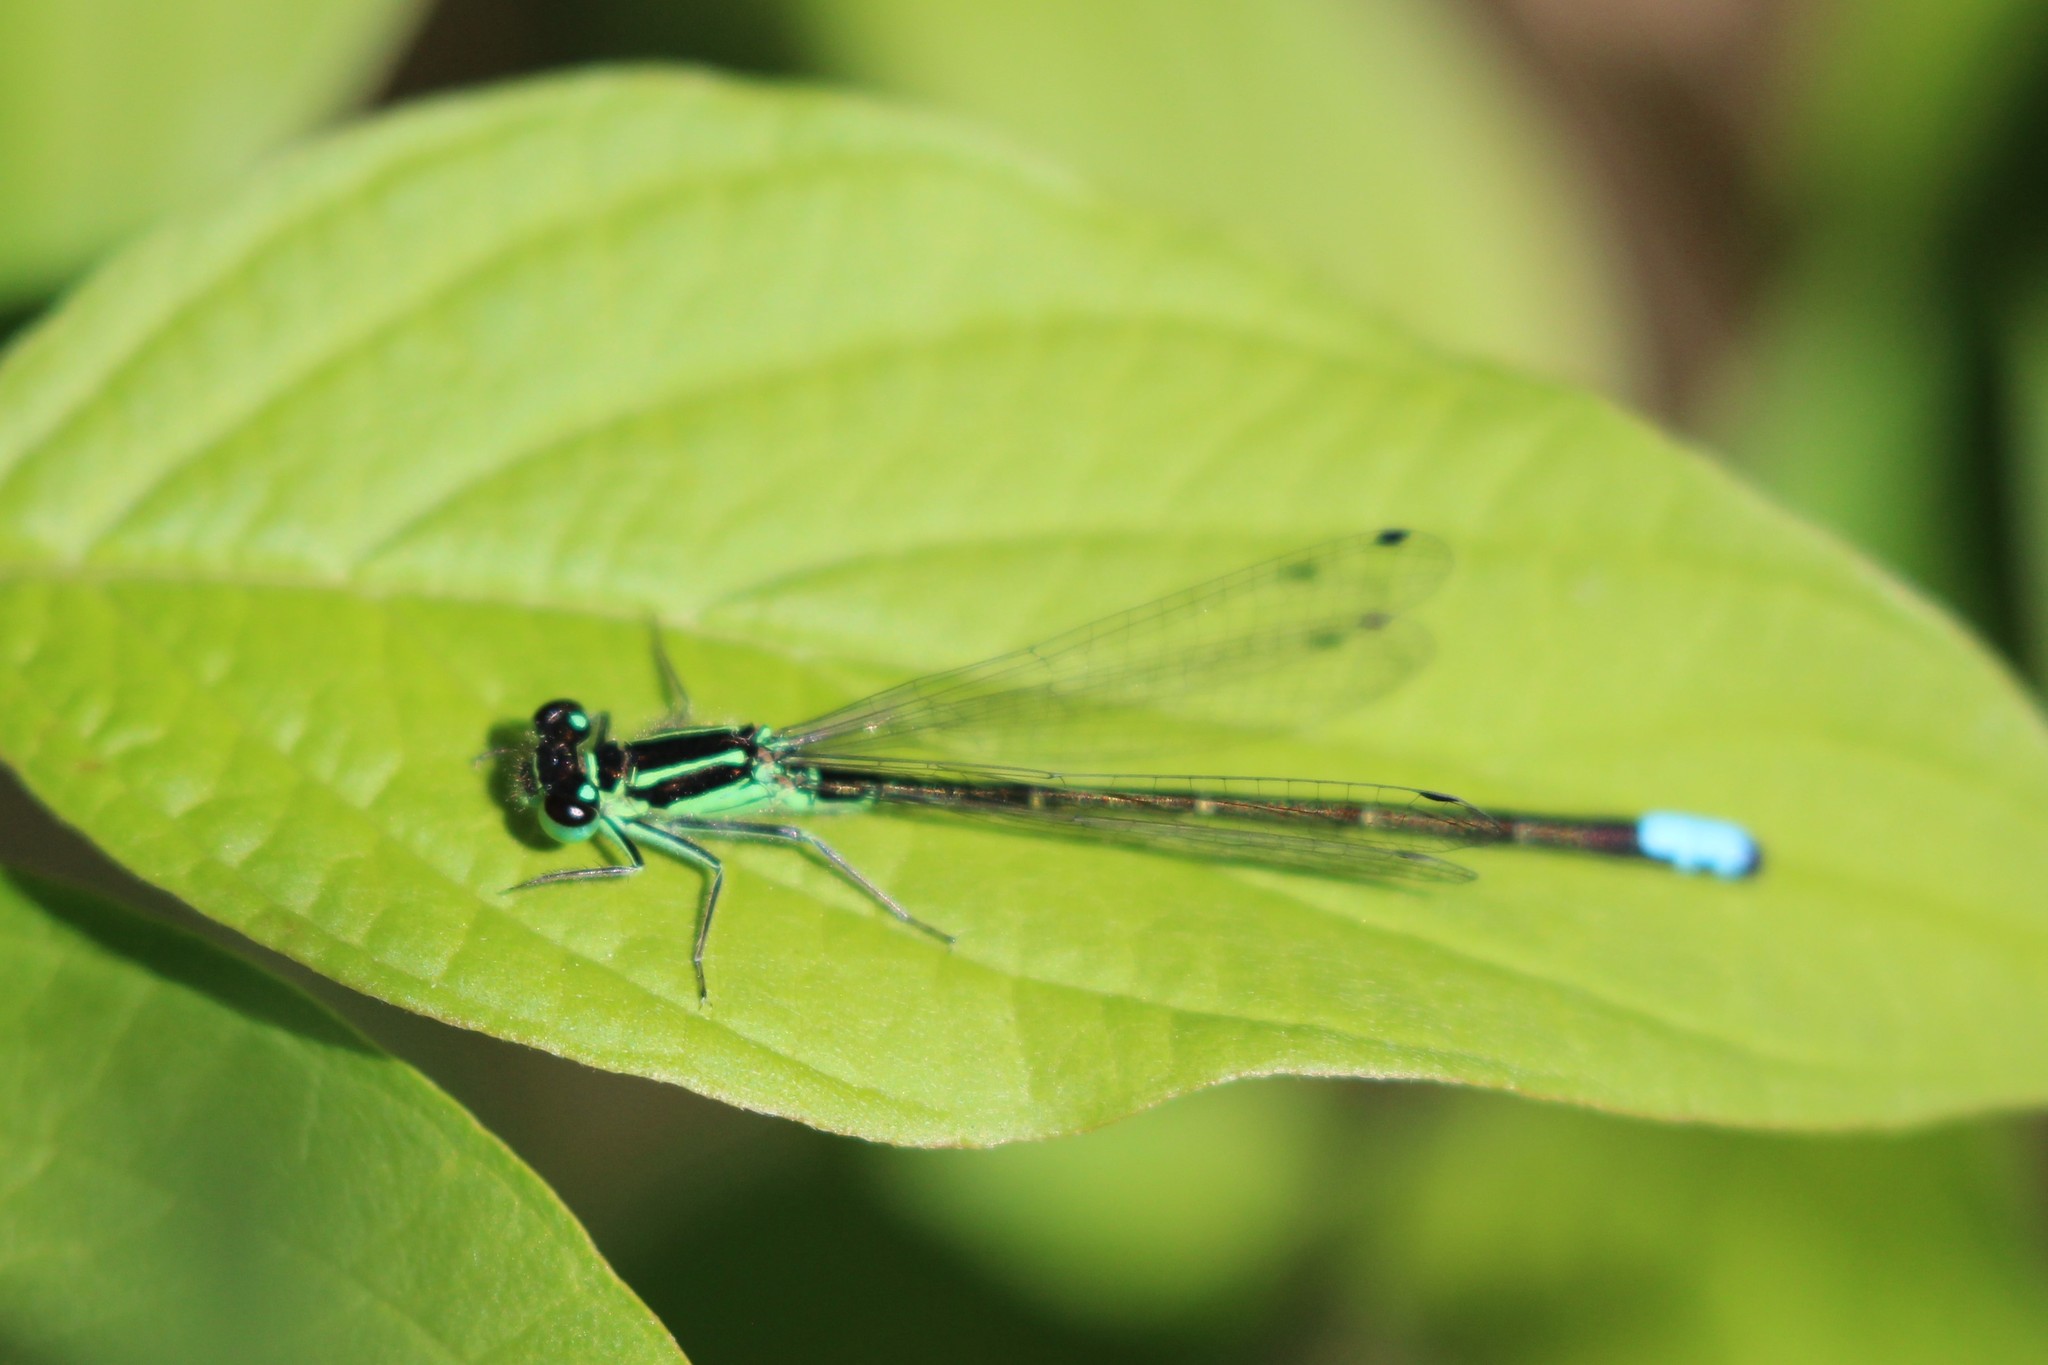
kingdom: Animalia
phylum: Arthropoda
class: Insecta
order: Odonata
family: Coenagrionidae
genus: Ischnura
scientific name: Ischnura verticalis
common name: Eastern forktail
